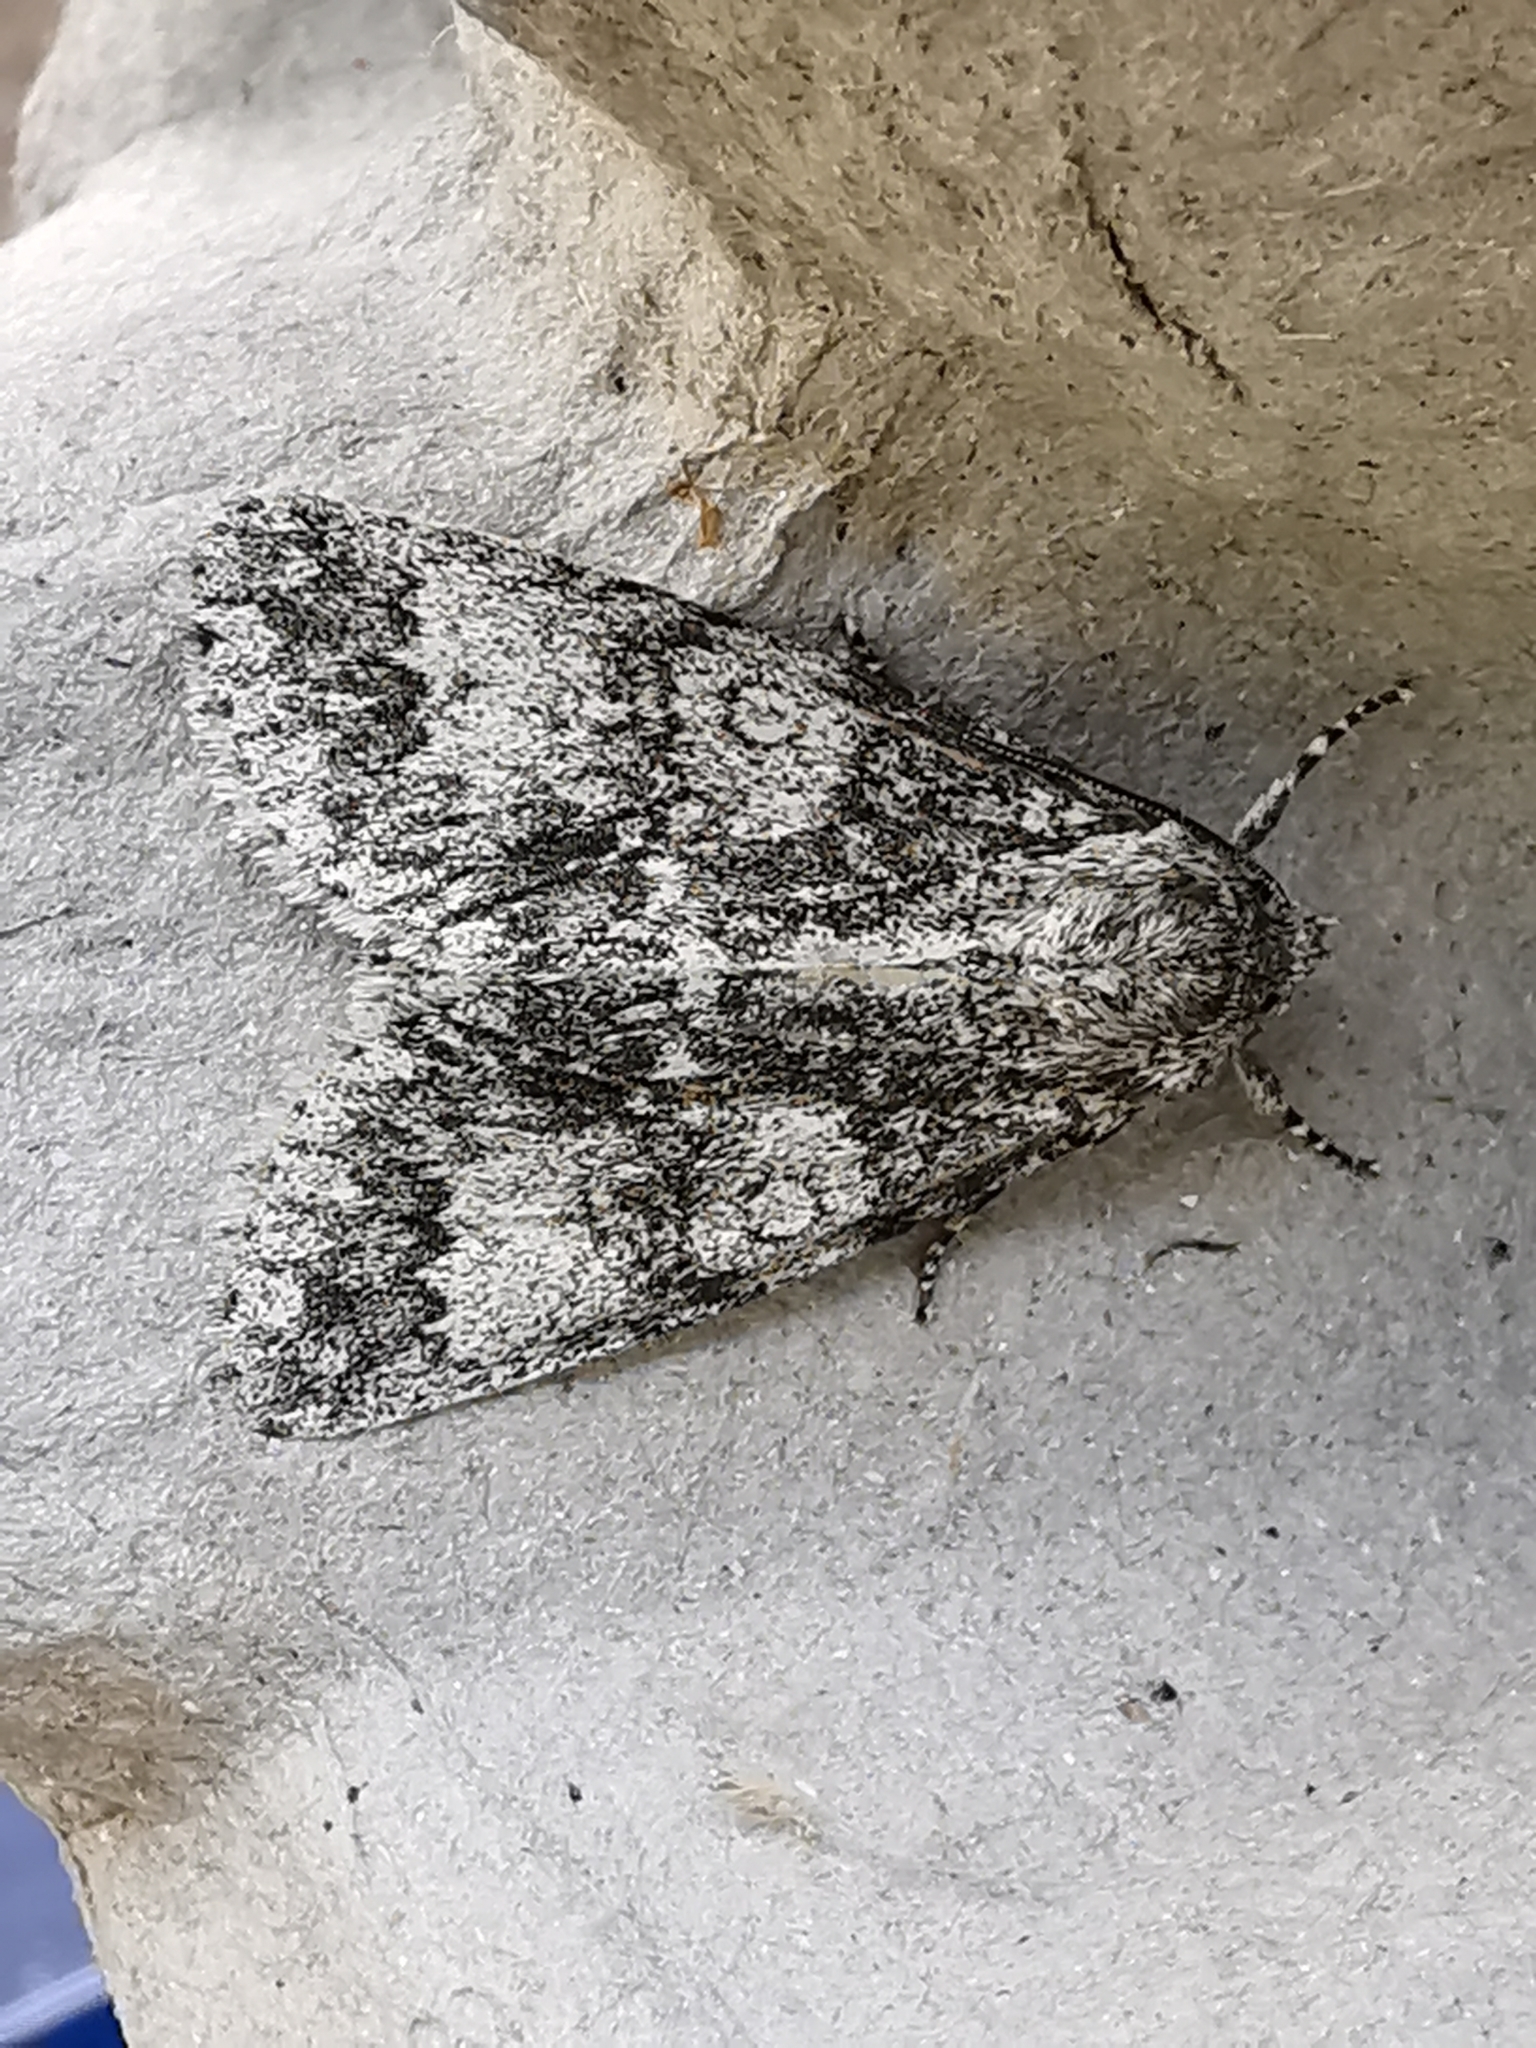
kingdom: Animalia
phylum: Arthropoda
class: Insecta
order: Lepidoptera
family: Noctuidae
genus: Acronicta
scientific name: Acronicta megacephala
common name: Poplar grey
